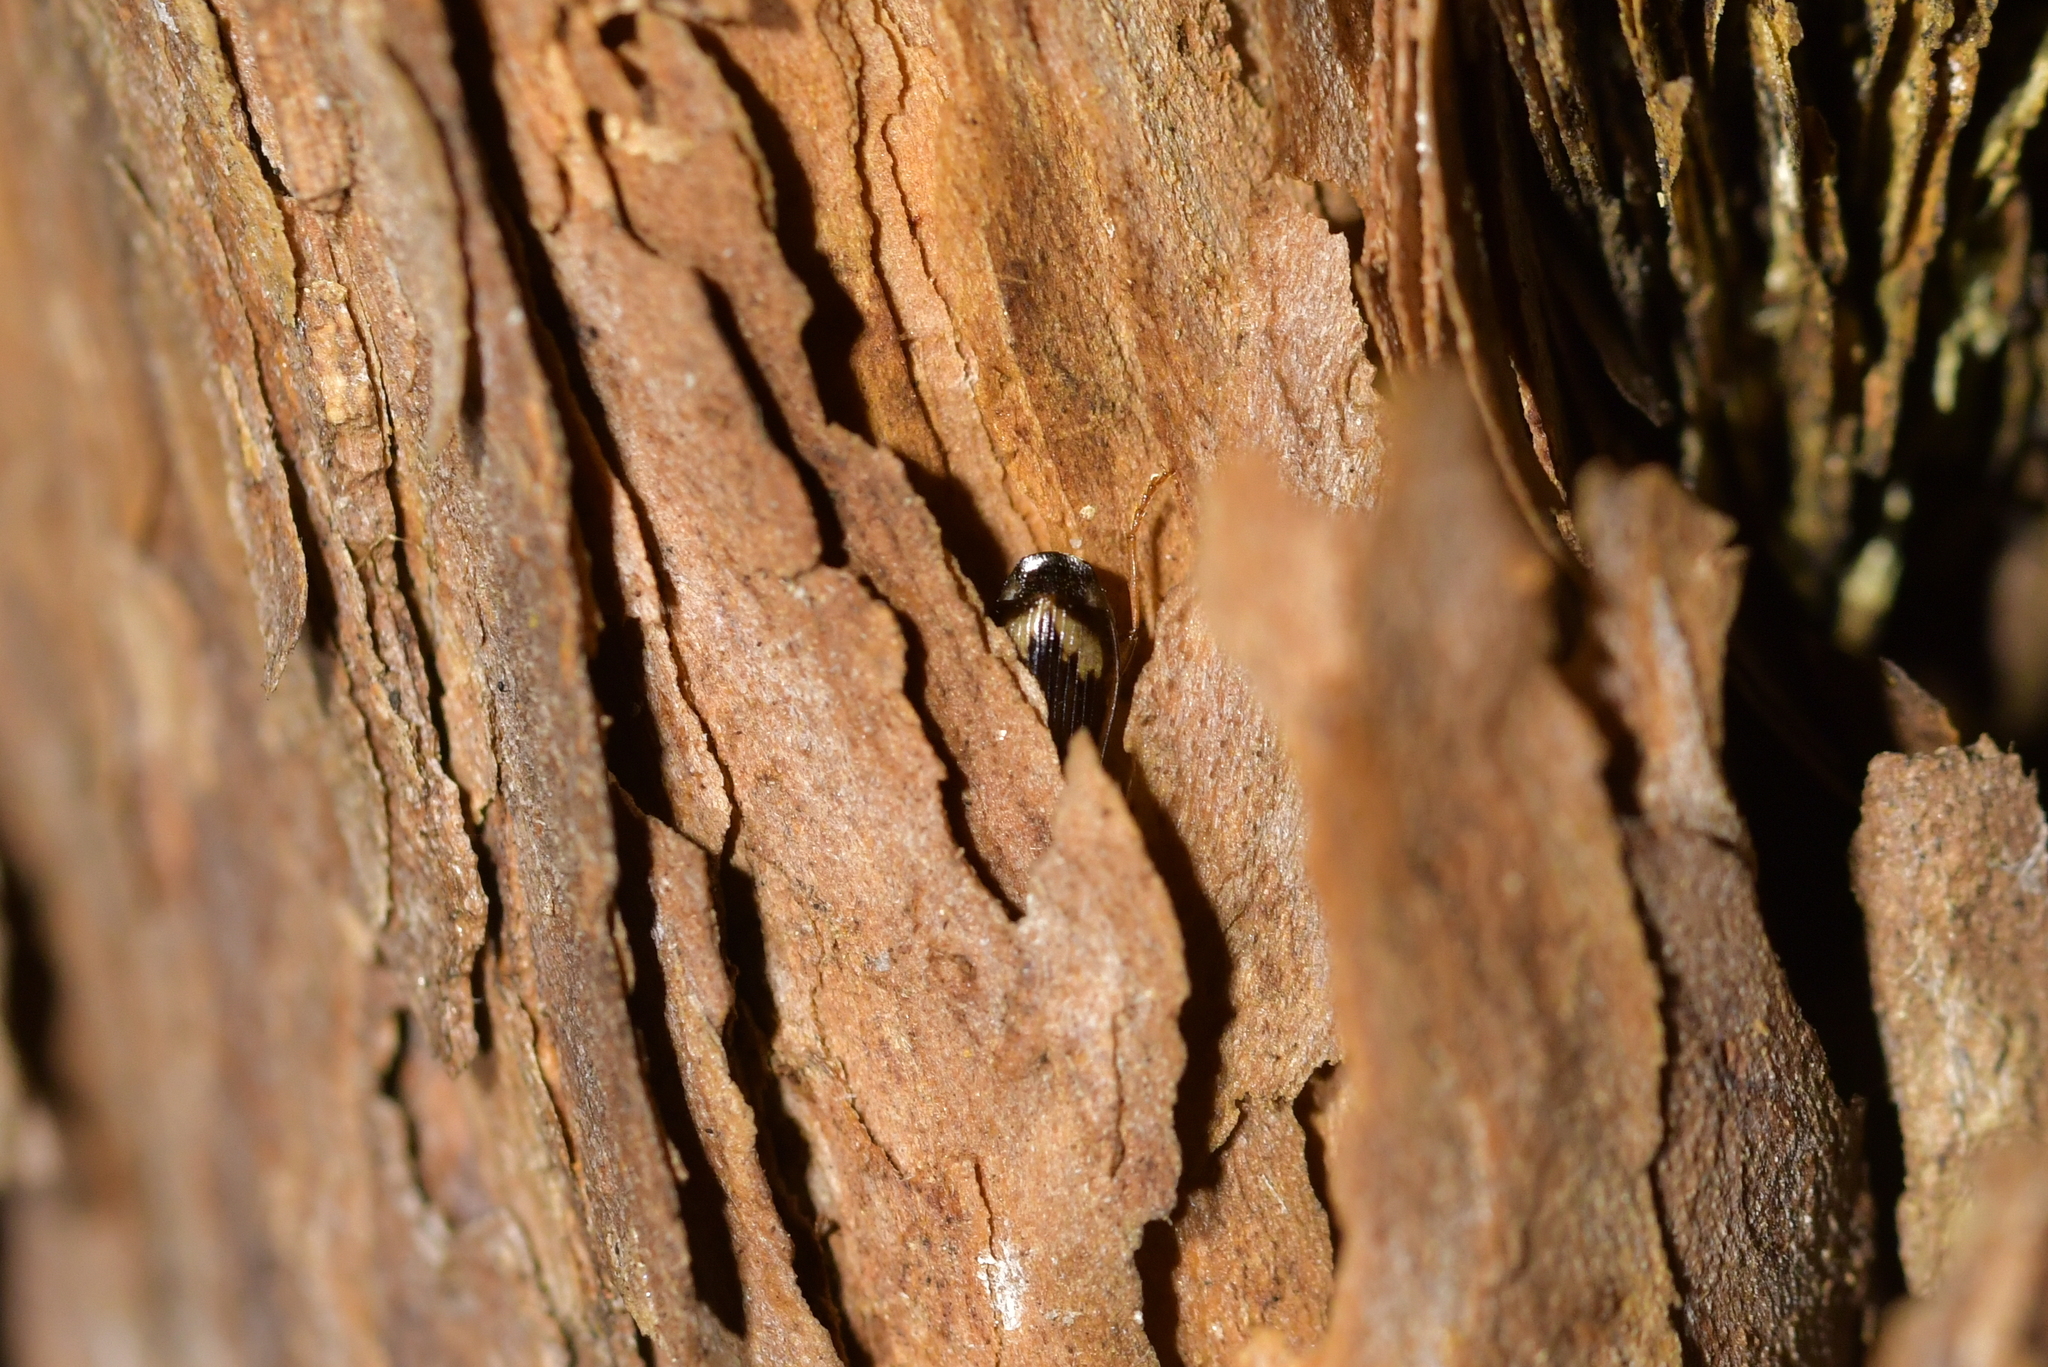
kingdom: Animalia
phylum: Arthropoda
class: Insecta
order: Coleoptera
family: Carabidae
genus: Demetrida
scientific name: Demetrida nasuta
